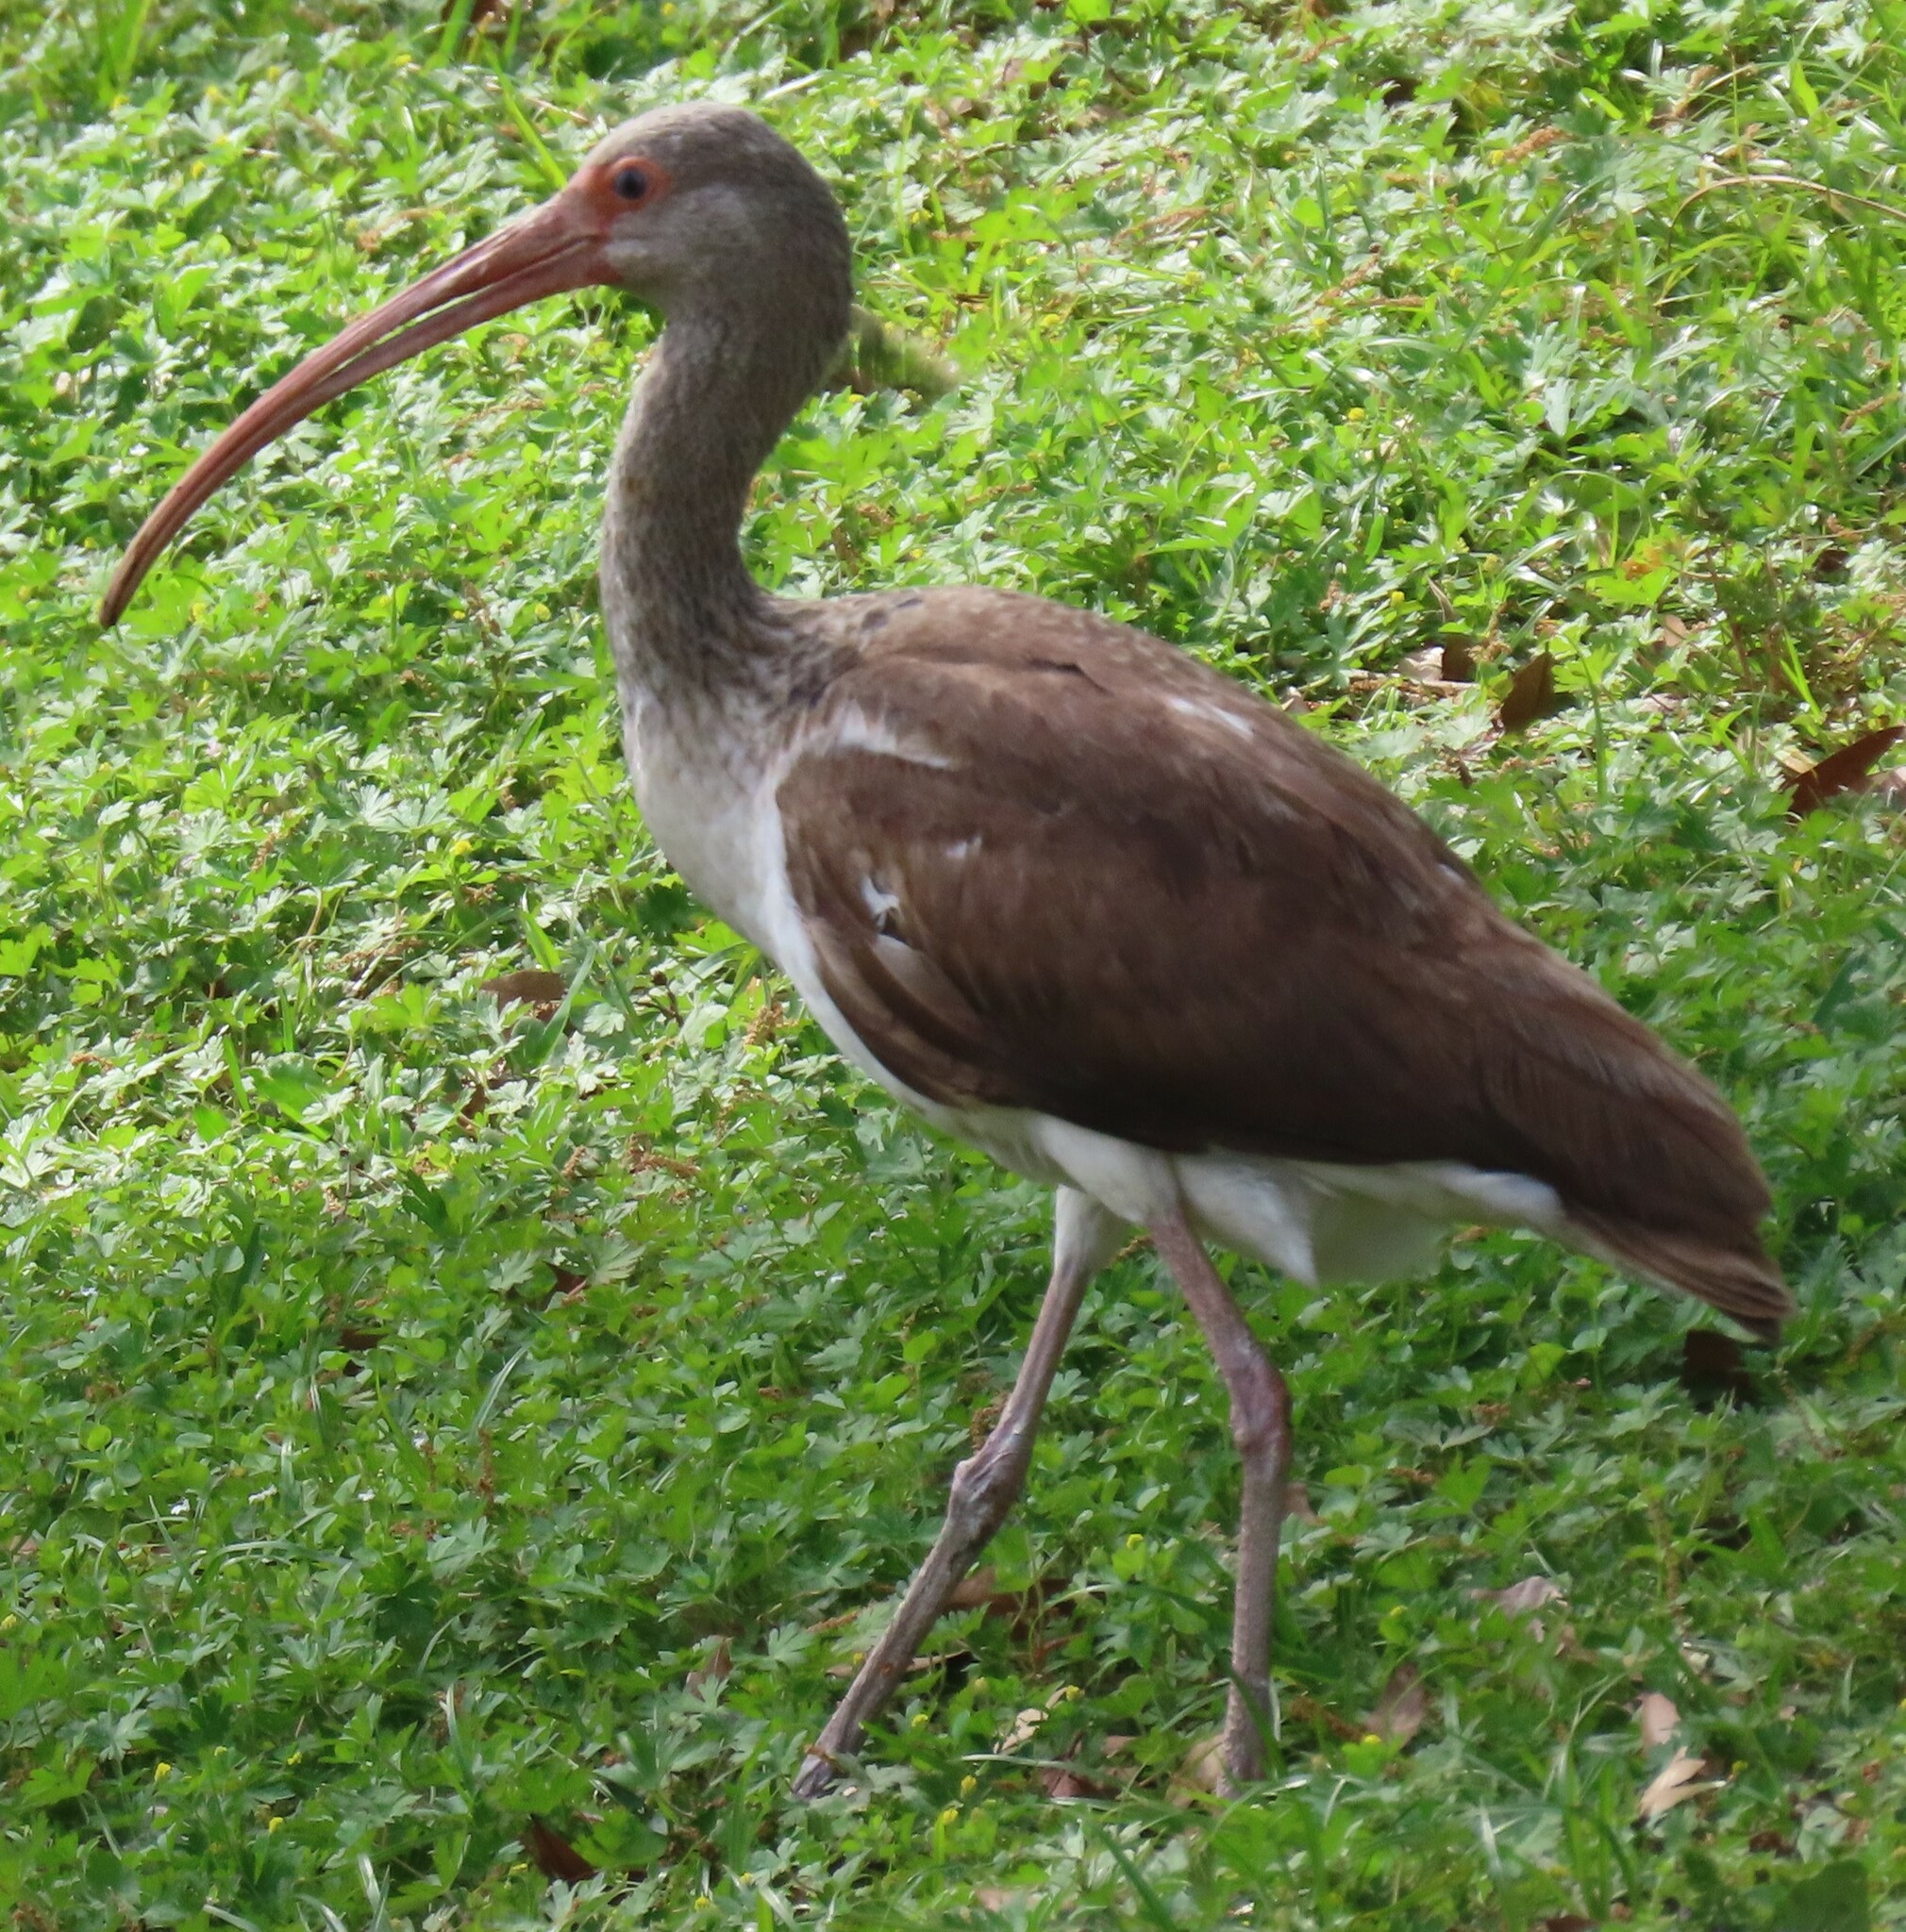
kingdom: Animalia
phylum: Chordata
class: Aves
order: Pelecaniformes
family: Threskiornithidae
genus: Eudocimus
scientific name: Eudocimus albus
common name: White ibis
